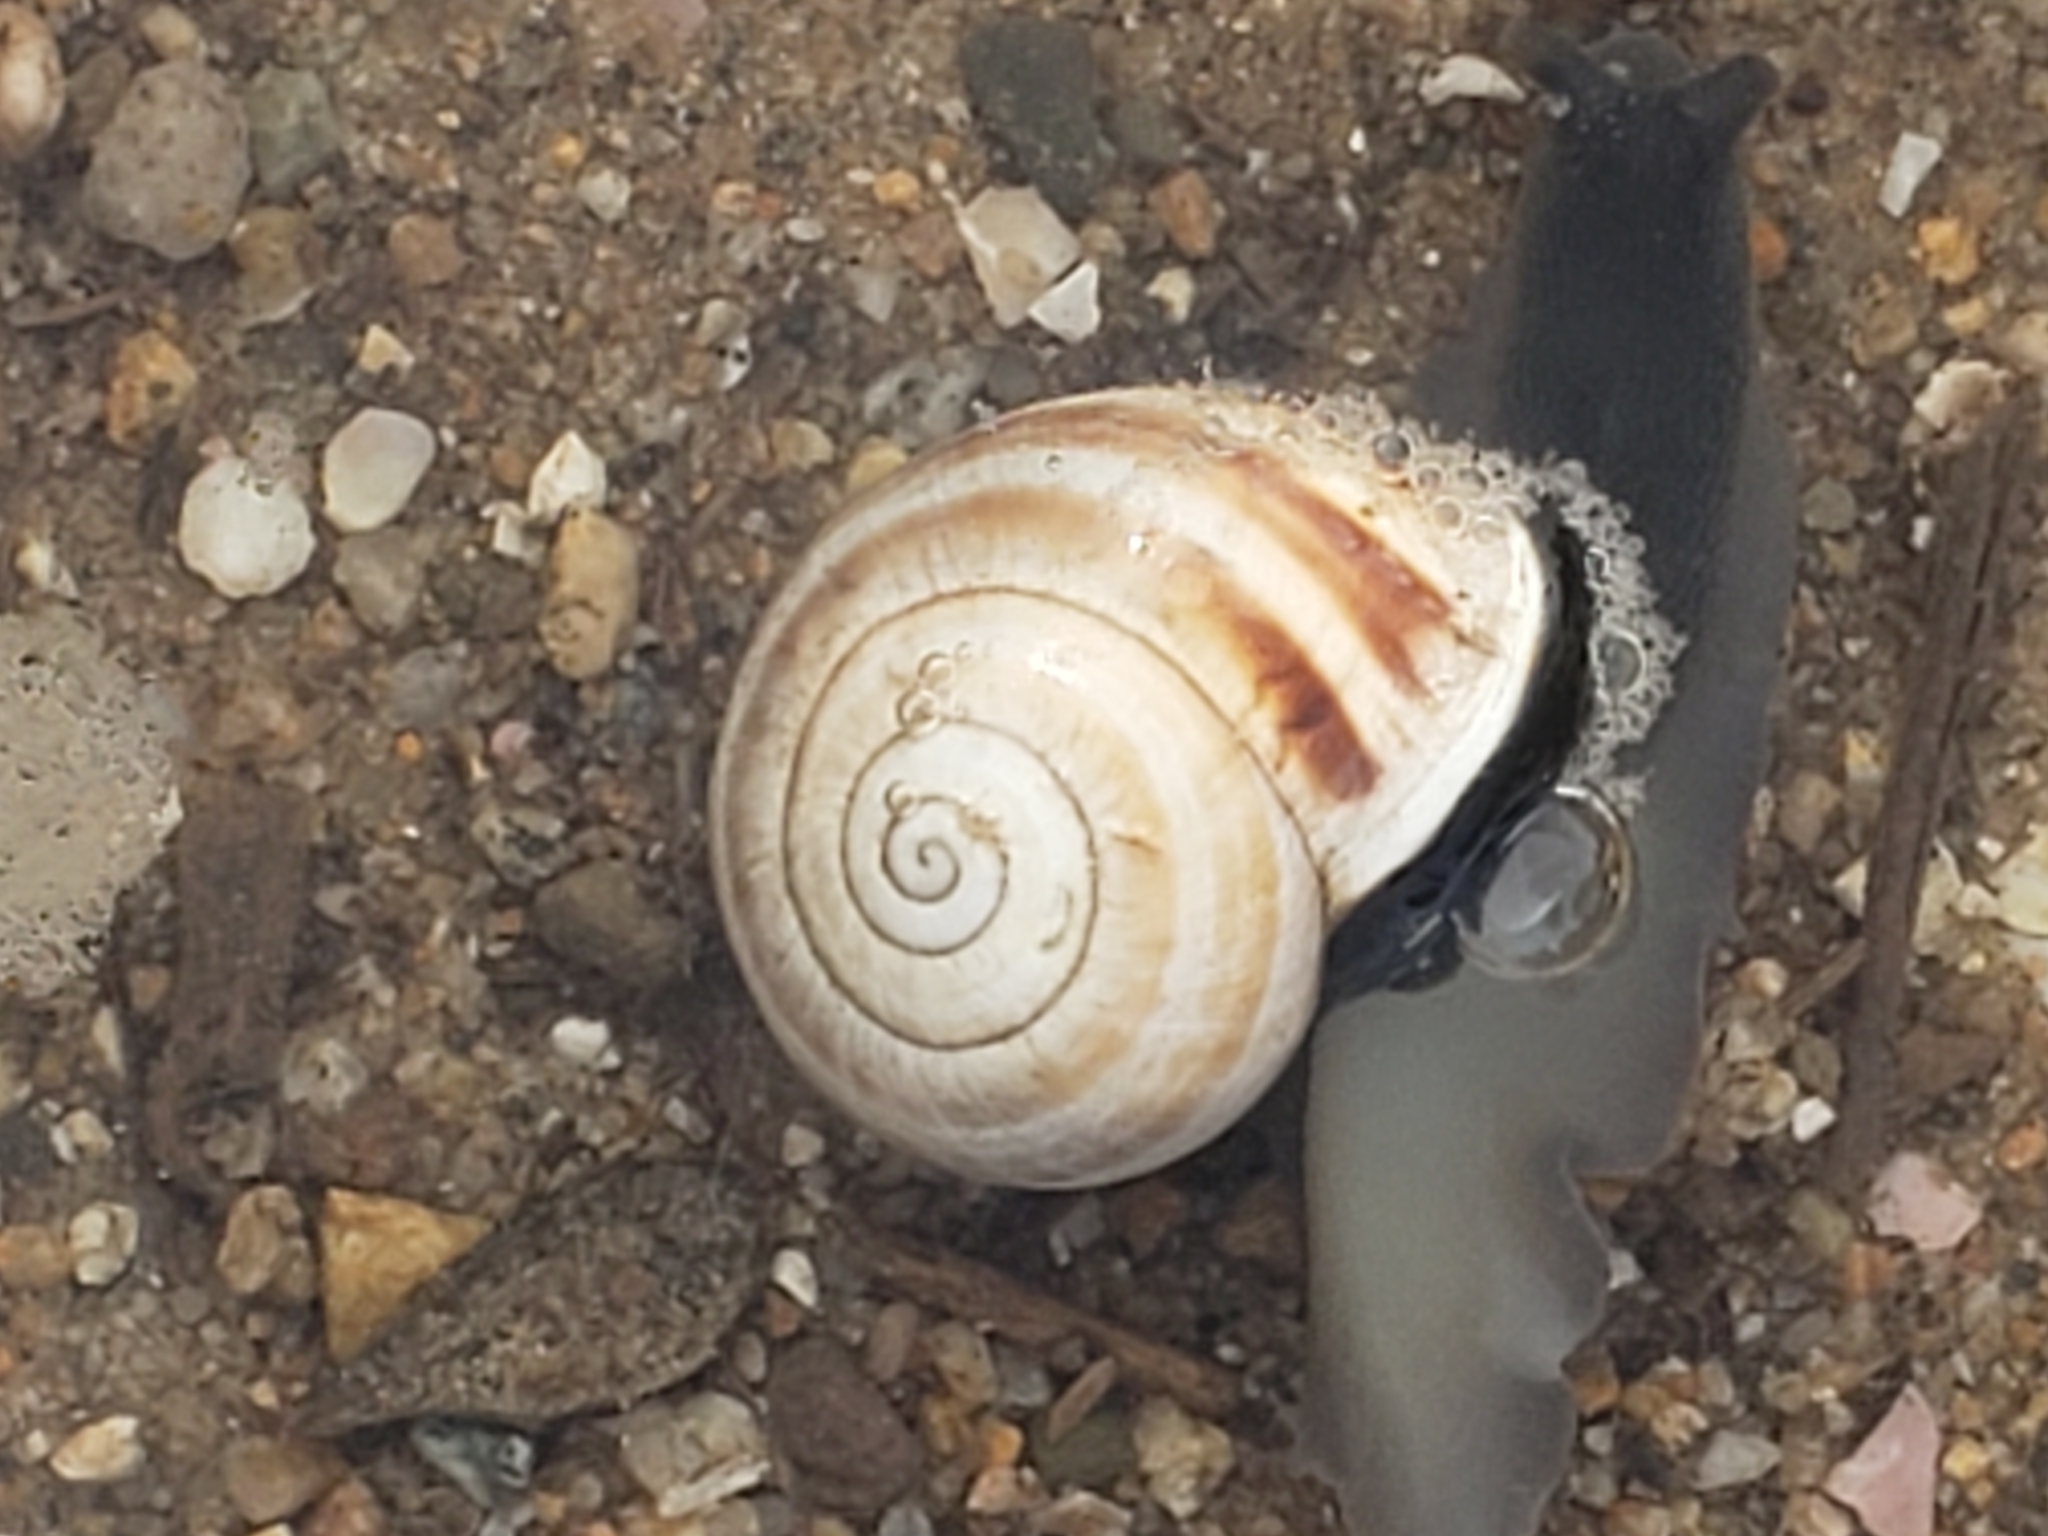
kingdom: Animalia
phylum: Mollusca
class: Gastropoda
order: Stylommatophora
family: Helicidae
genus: Otala
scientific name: Otala lactea
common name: Milk snail
